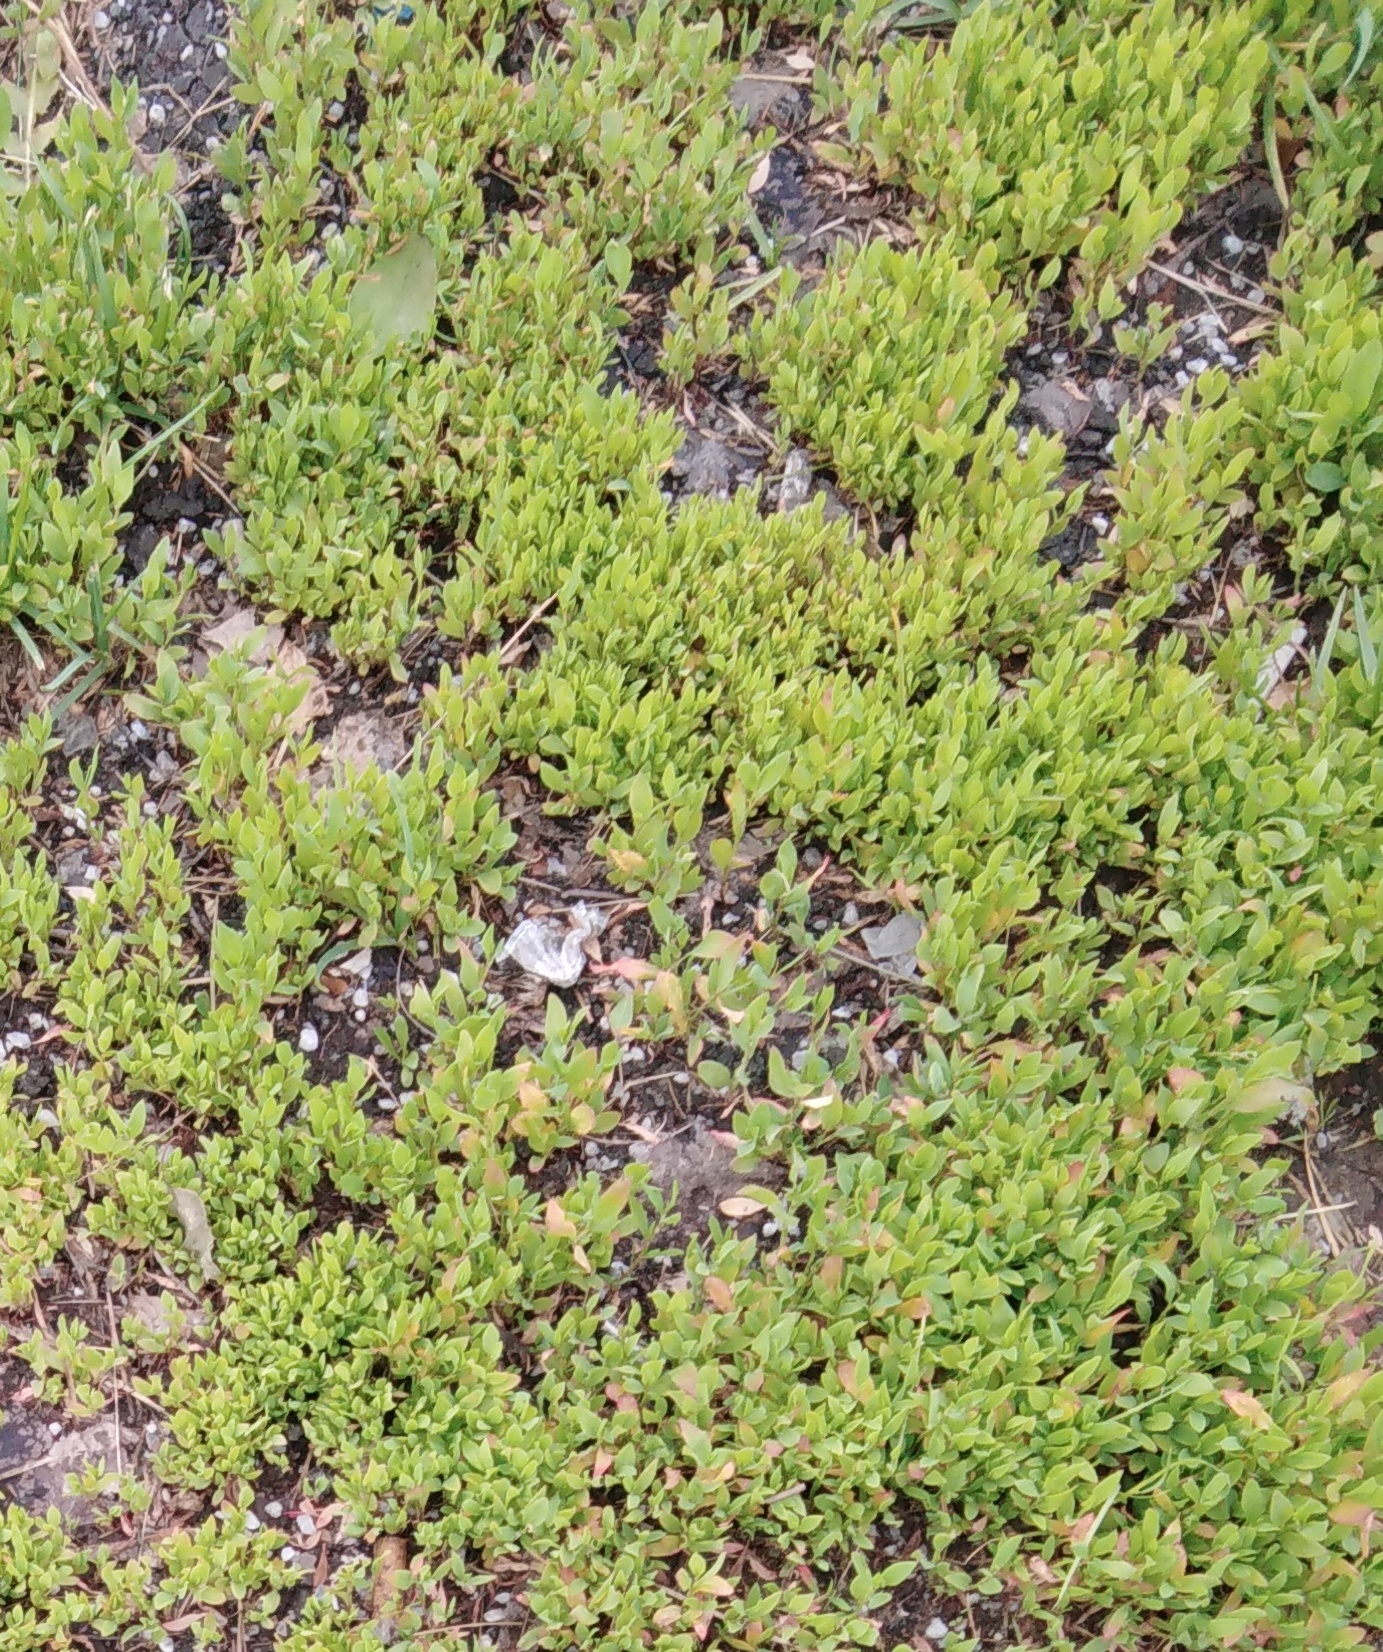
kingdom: Plantae
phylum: Tracheophyta
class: Magnoliopsida
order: Caryophyllales
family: Polygonaceae
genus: Polygonum
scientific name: Polygonum
